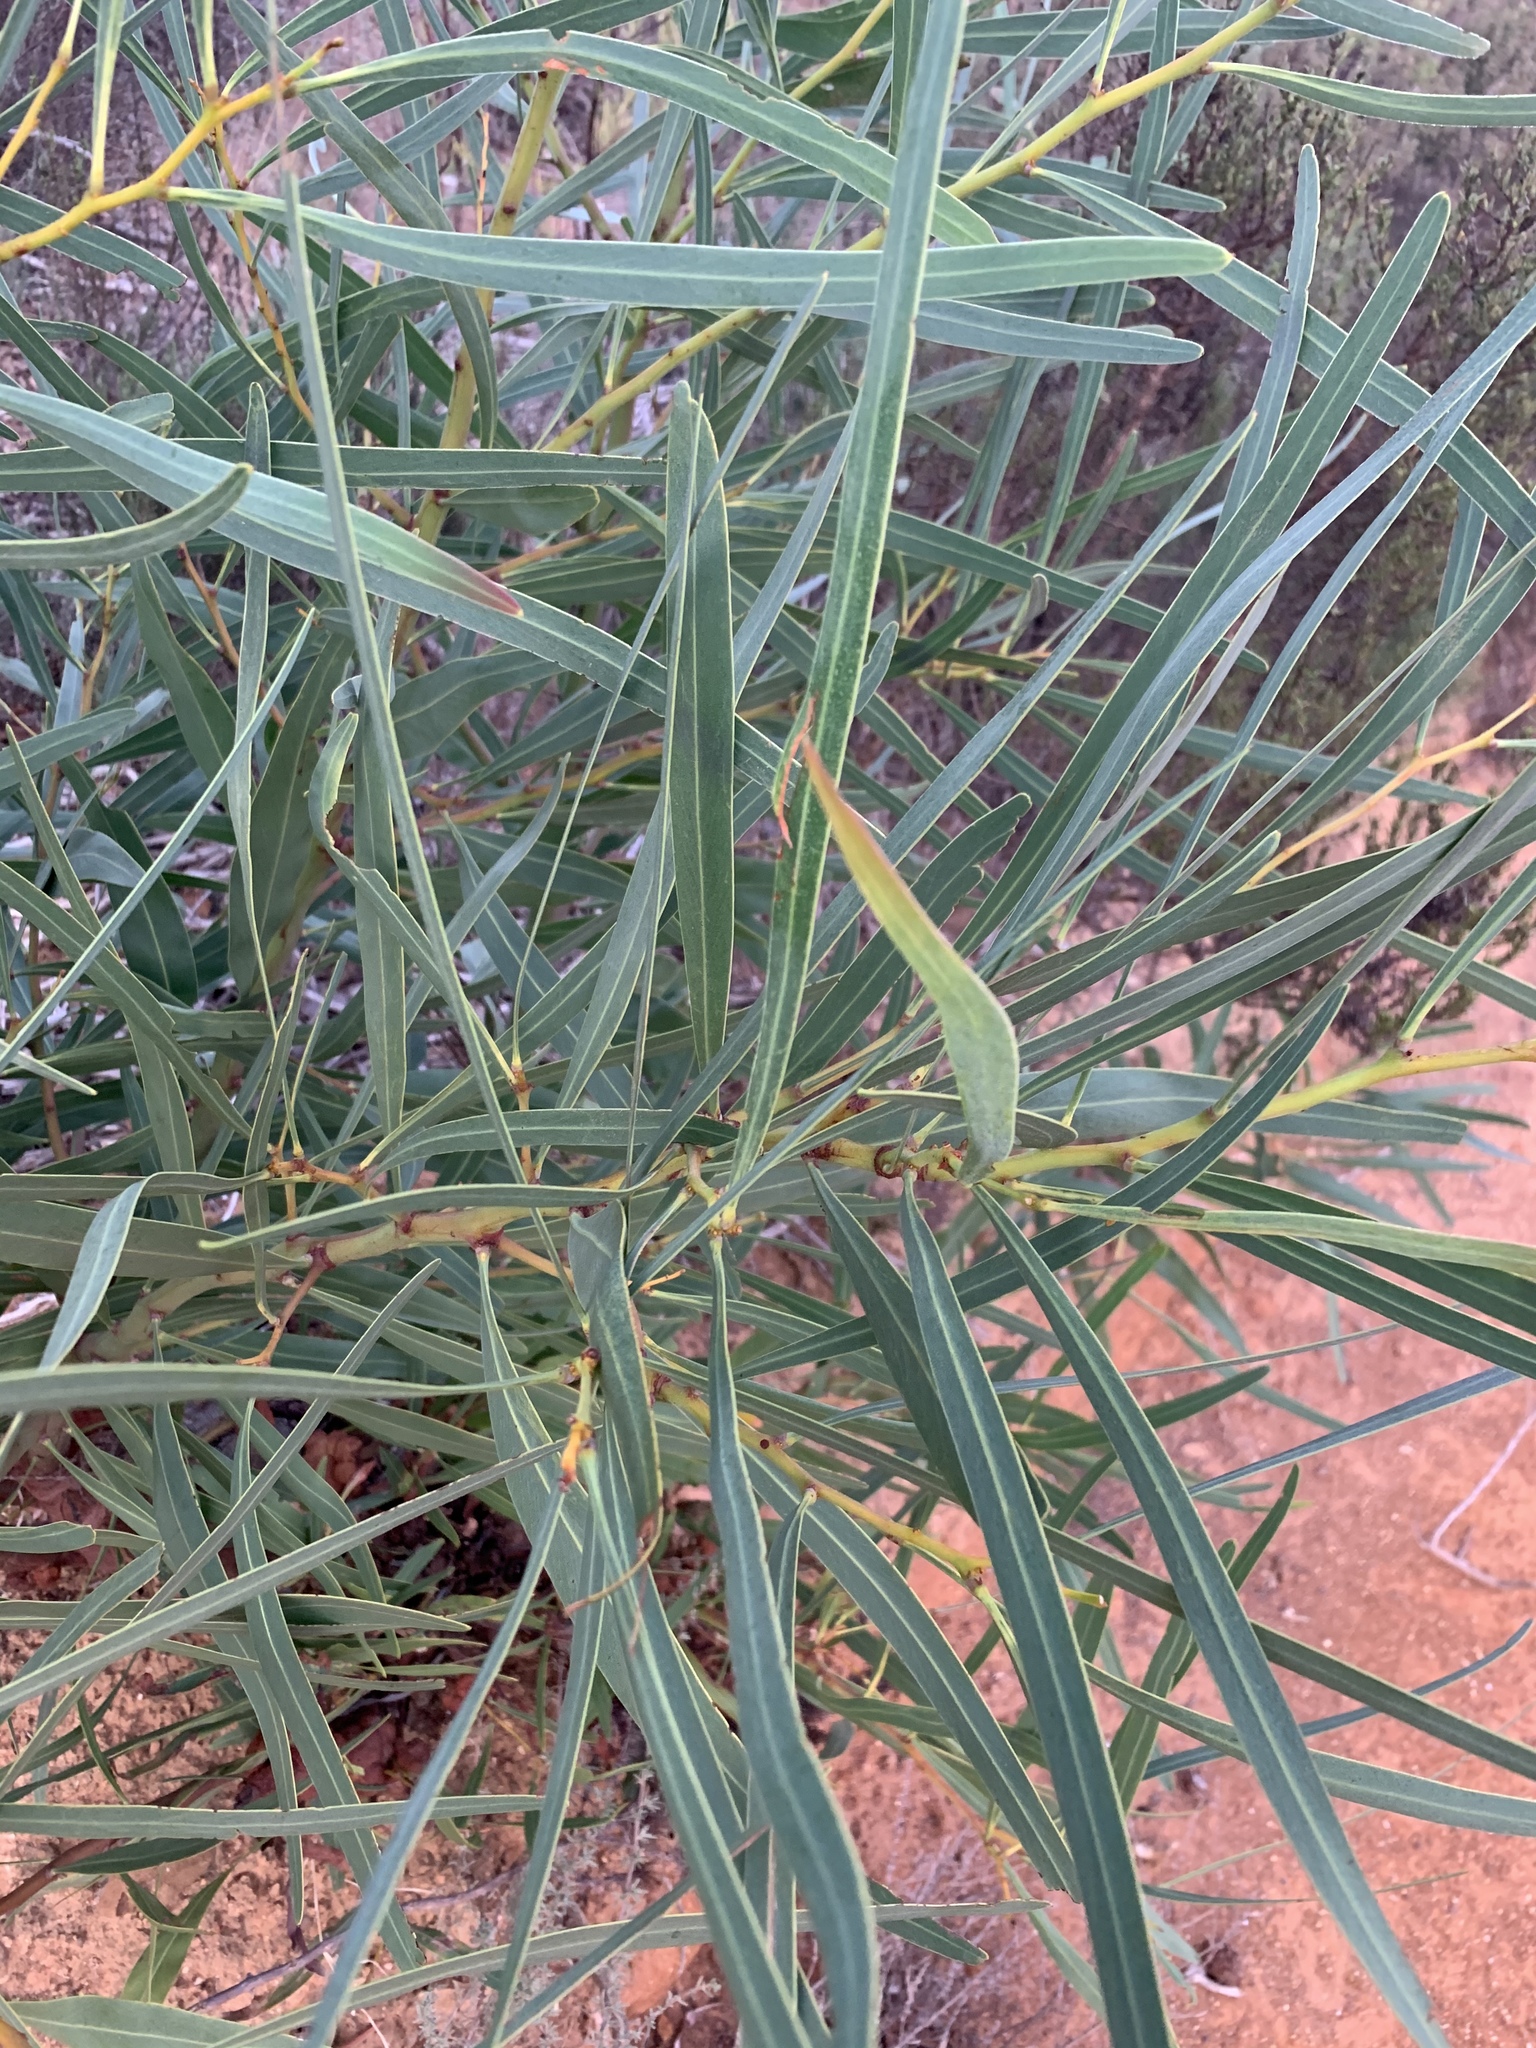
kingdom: Plantae
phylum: Tracheophyta
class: Magnoliopsida
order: Fabales
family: Fabaceae
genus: Acacia
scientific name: Acacia saligna
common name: Orange wattle
